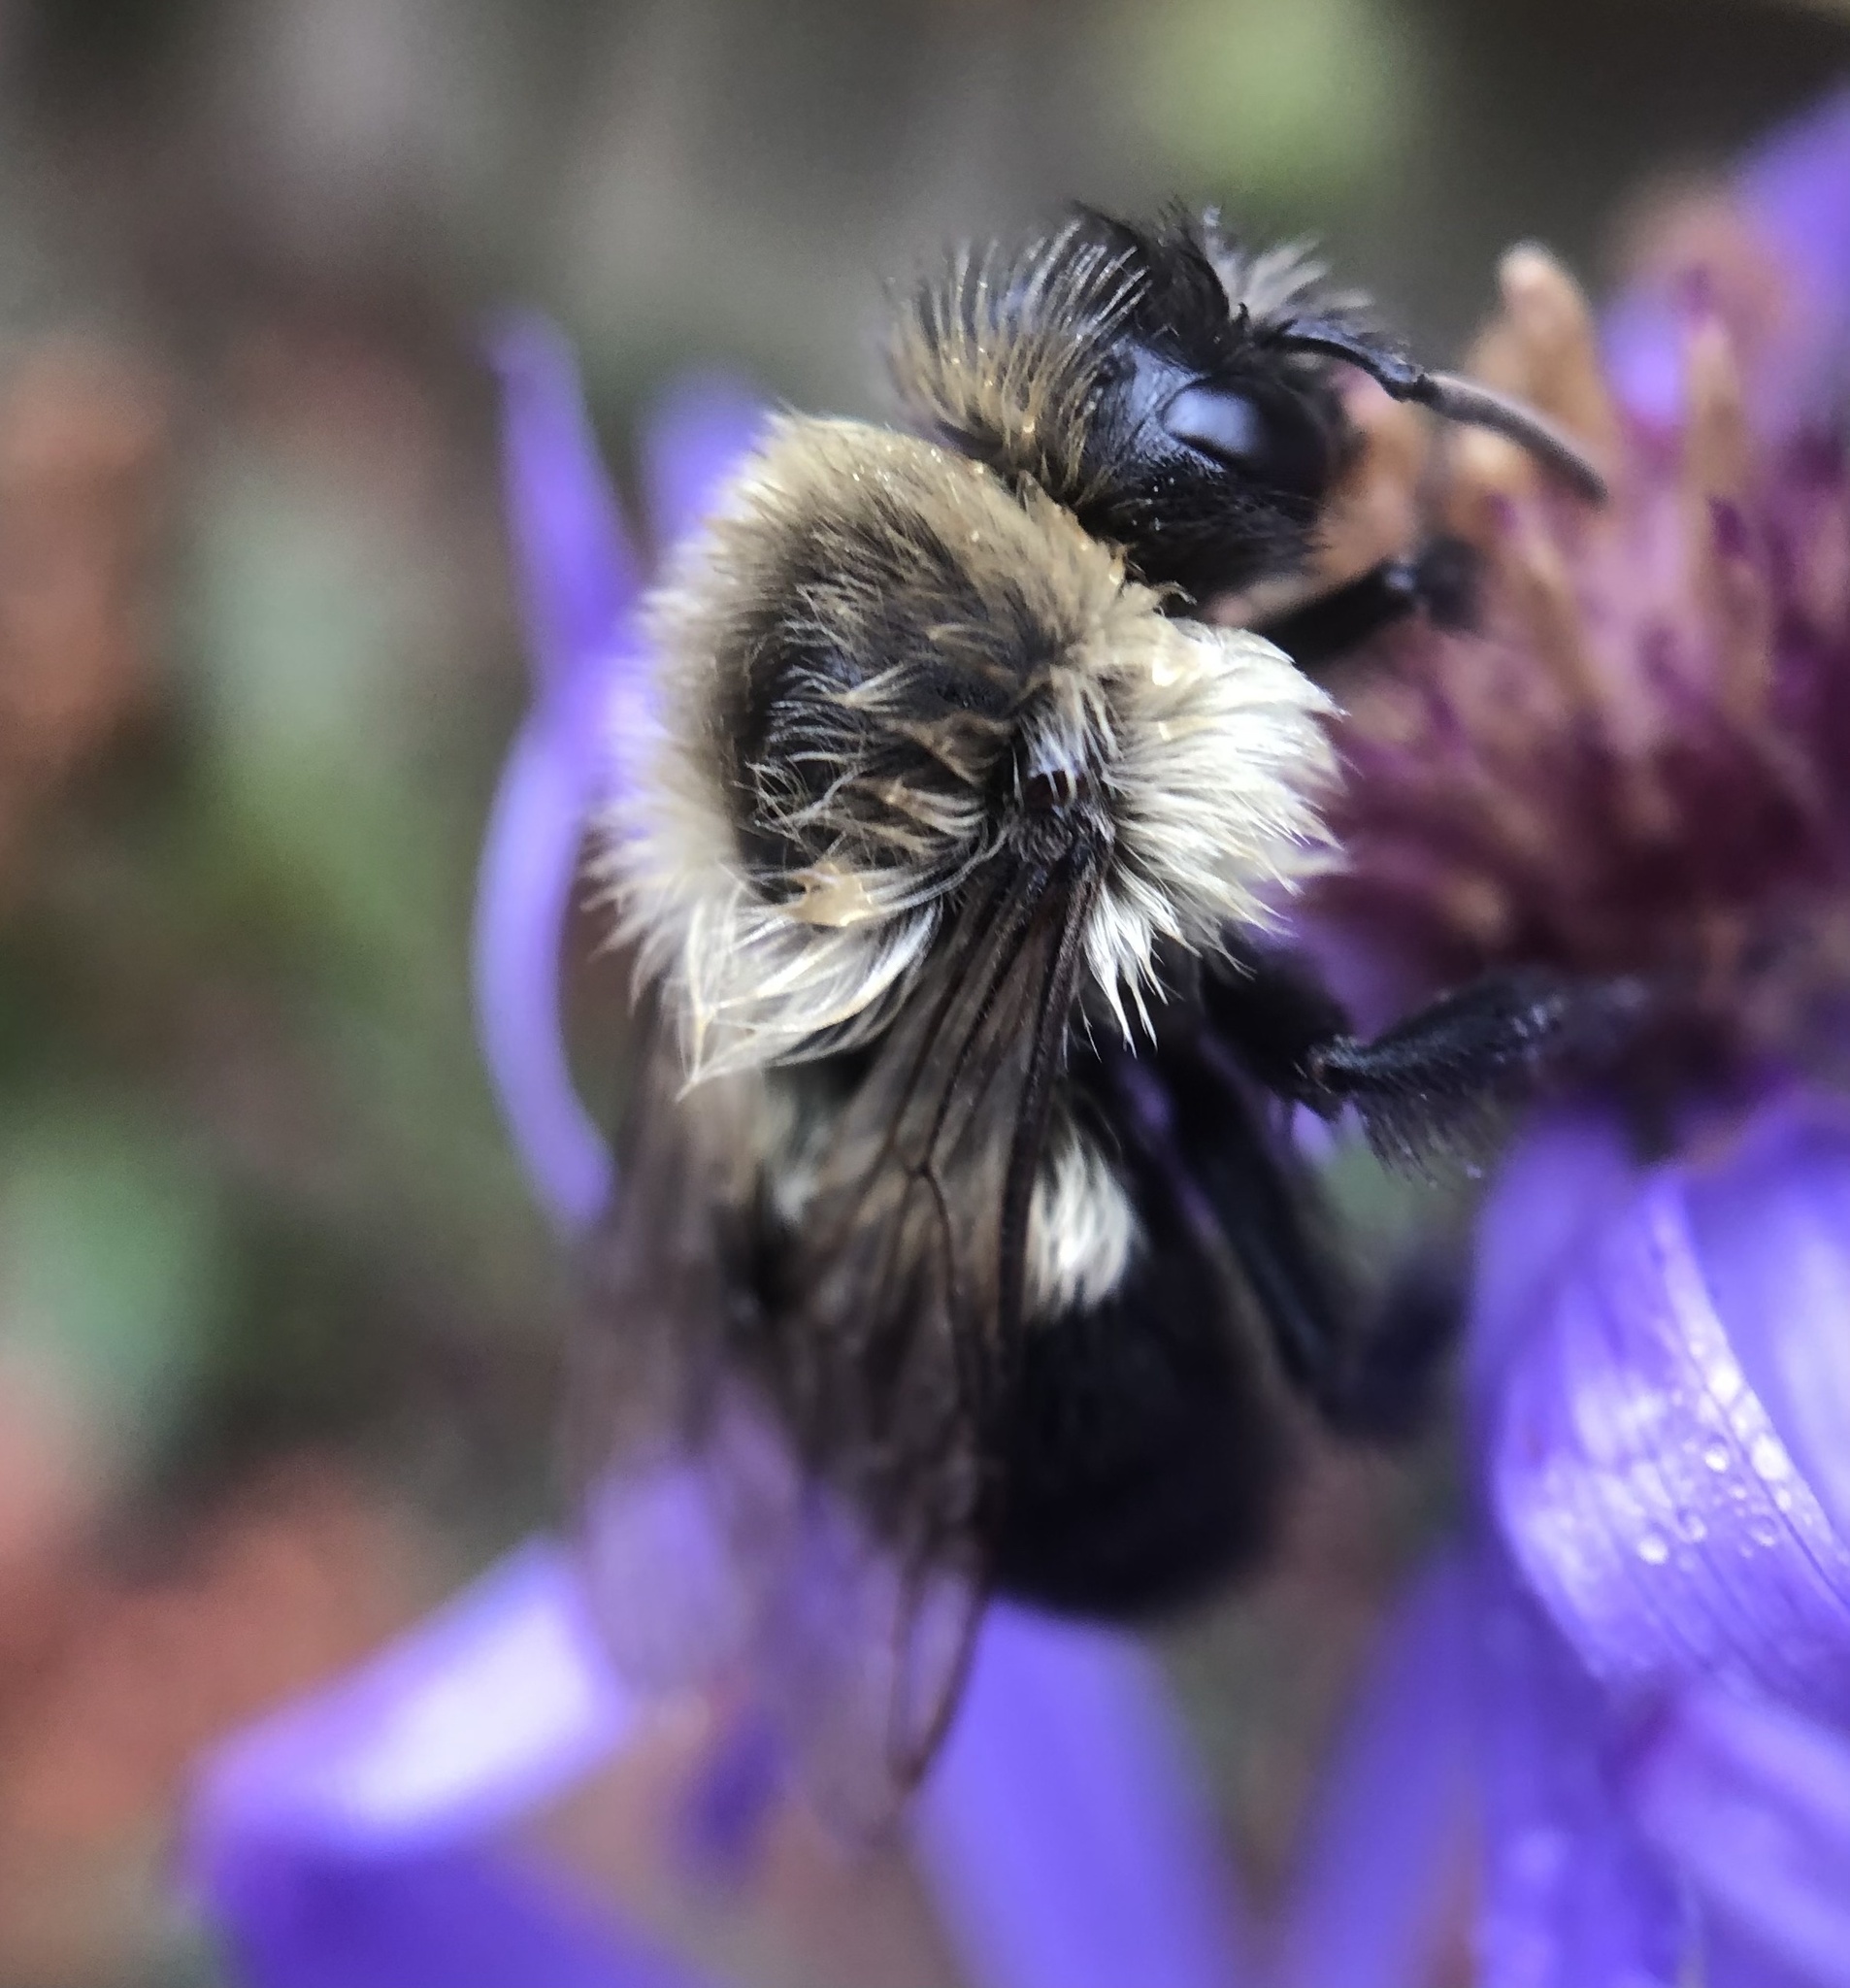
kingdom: Animalia
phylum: Arthropoda
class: Insecta
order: Hymenoptera
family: Apidae
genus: Bombus
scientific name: Bombus impatiens
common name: Common eastern bumble bee
